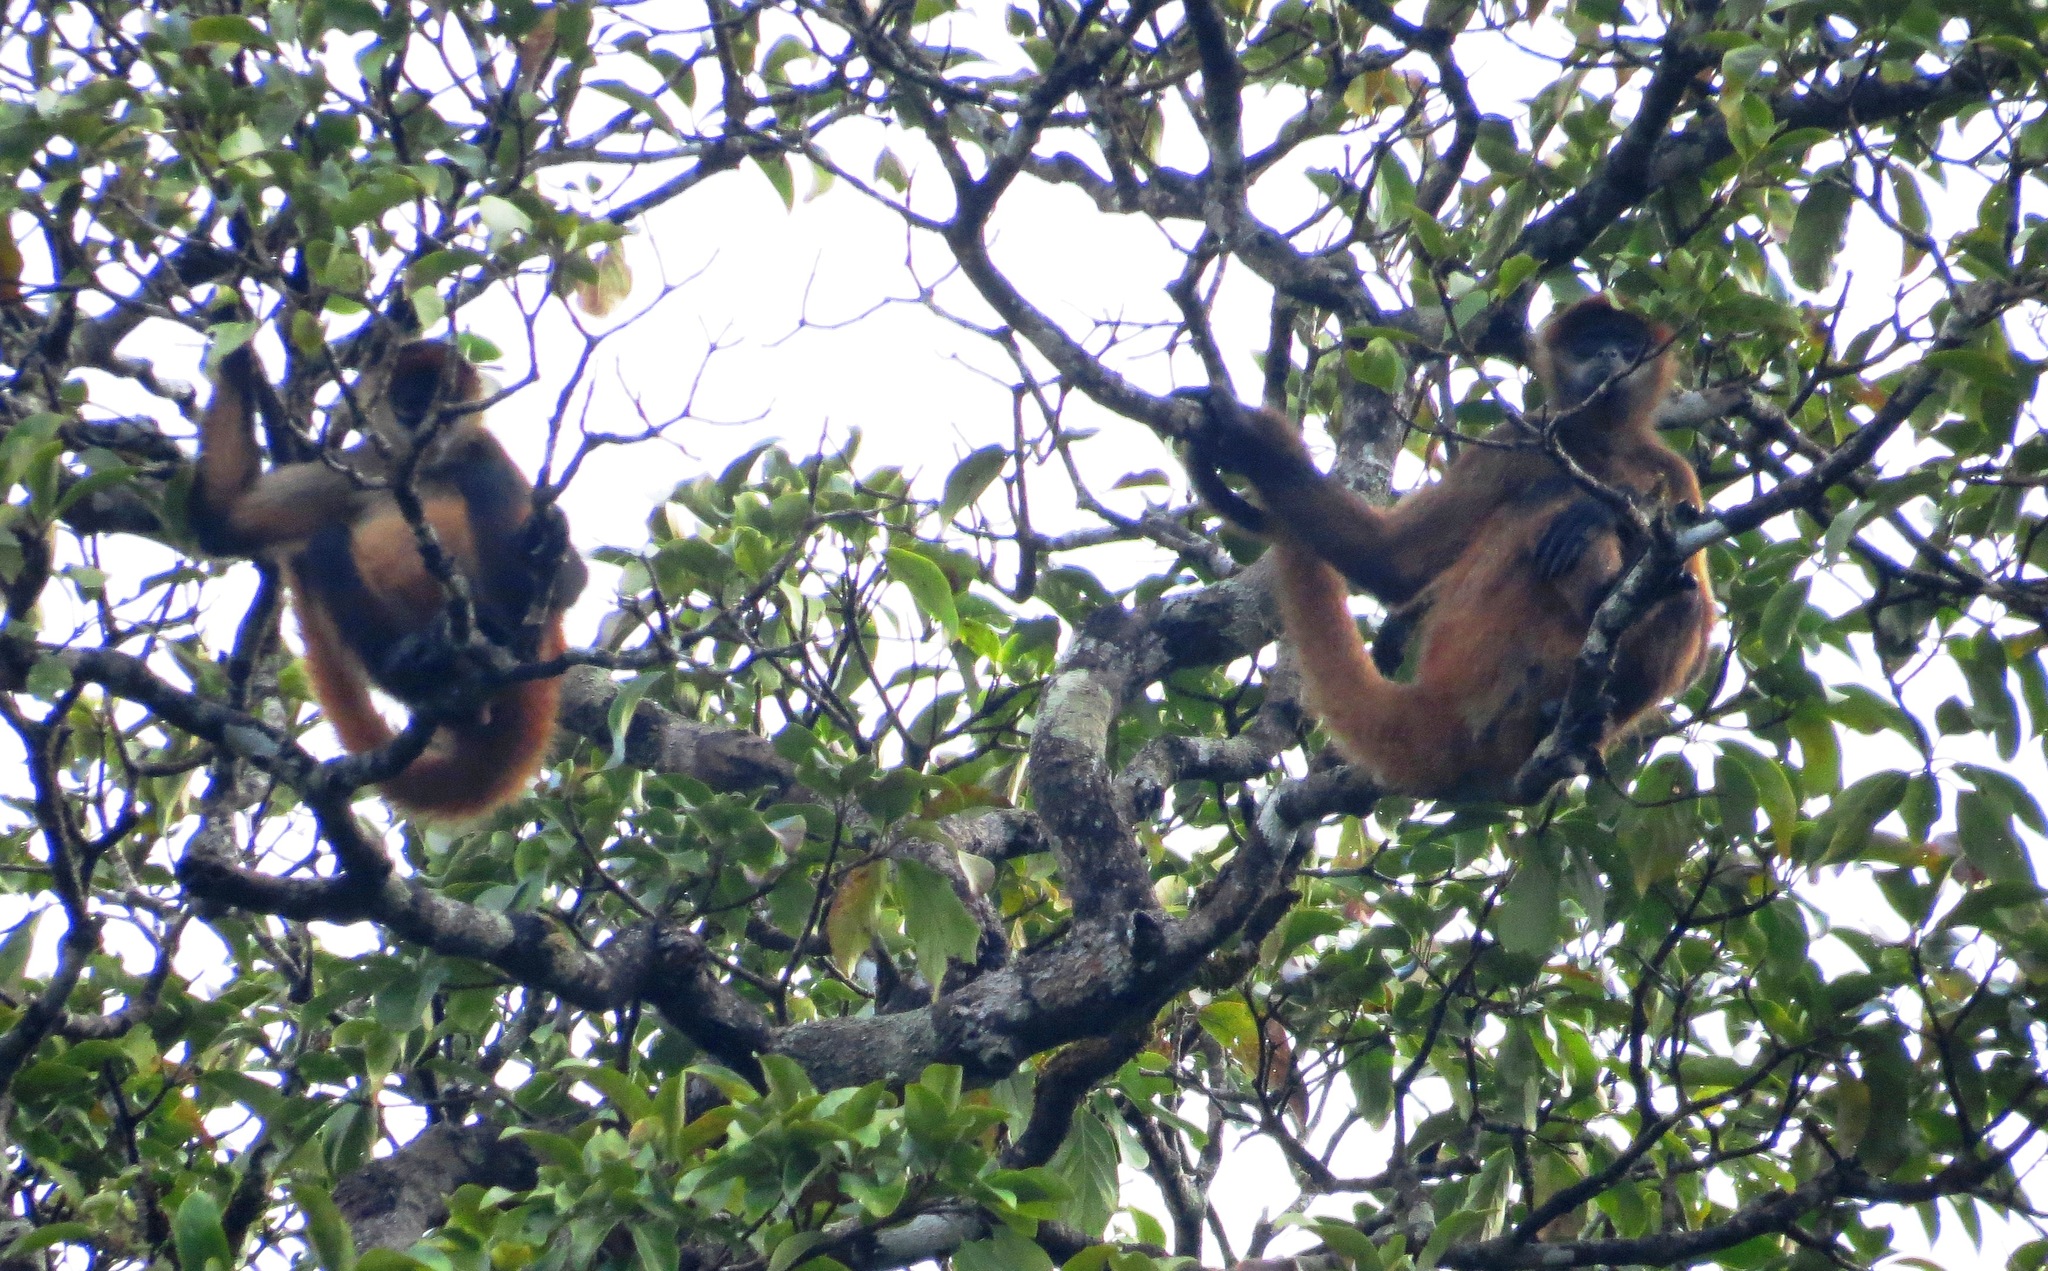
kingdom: Animalia
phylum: Chordata
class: Mammalia
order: Primates
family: Atelidae
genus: Ateles
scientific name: Ateles geoffroyi
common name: Black-handed spider monkey
